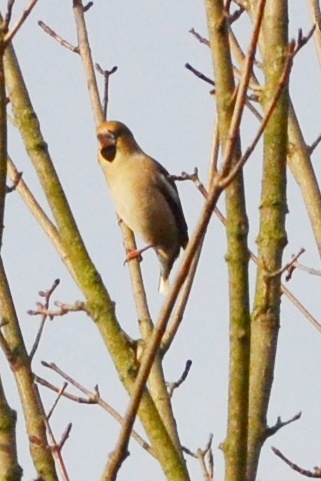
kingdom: Animalia
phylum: Chordata
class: Aves
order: Passeriformes
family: Fringillidae
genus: Coccothraustes
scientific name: Coccothraustes coccothraustes
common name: Hawfinch
